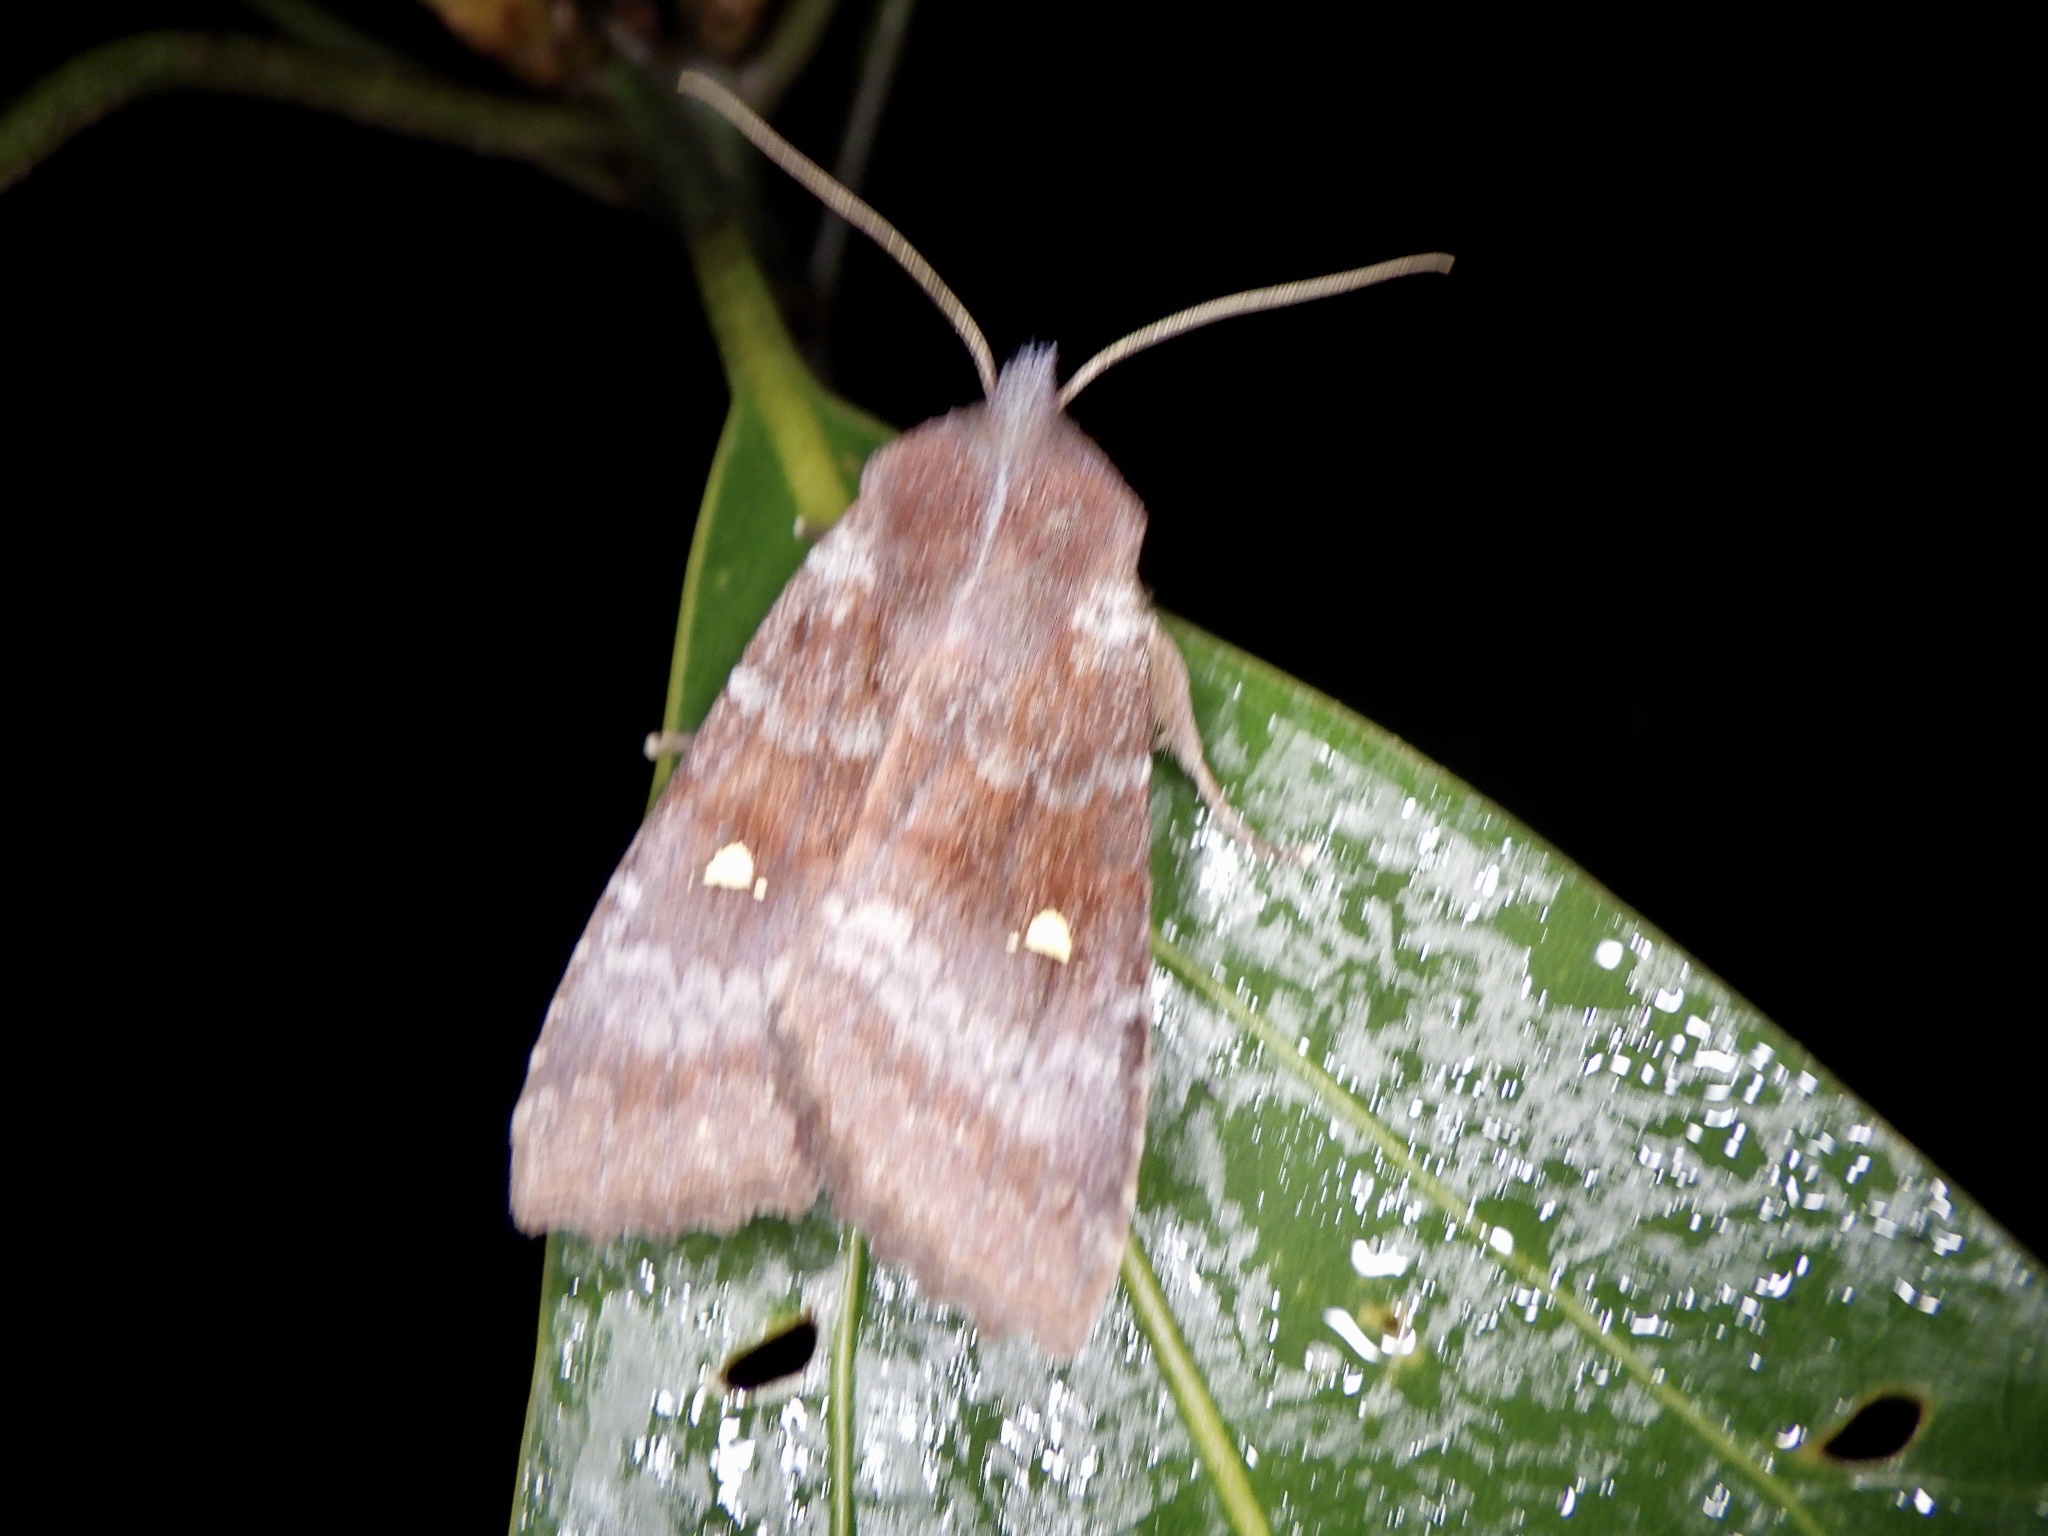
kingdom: Animalia
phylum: Arthropoda
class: Insecta
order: Lepidoptera
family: Noctuidae
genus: Eupsilia
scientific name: Eupsilia unipuncta
